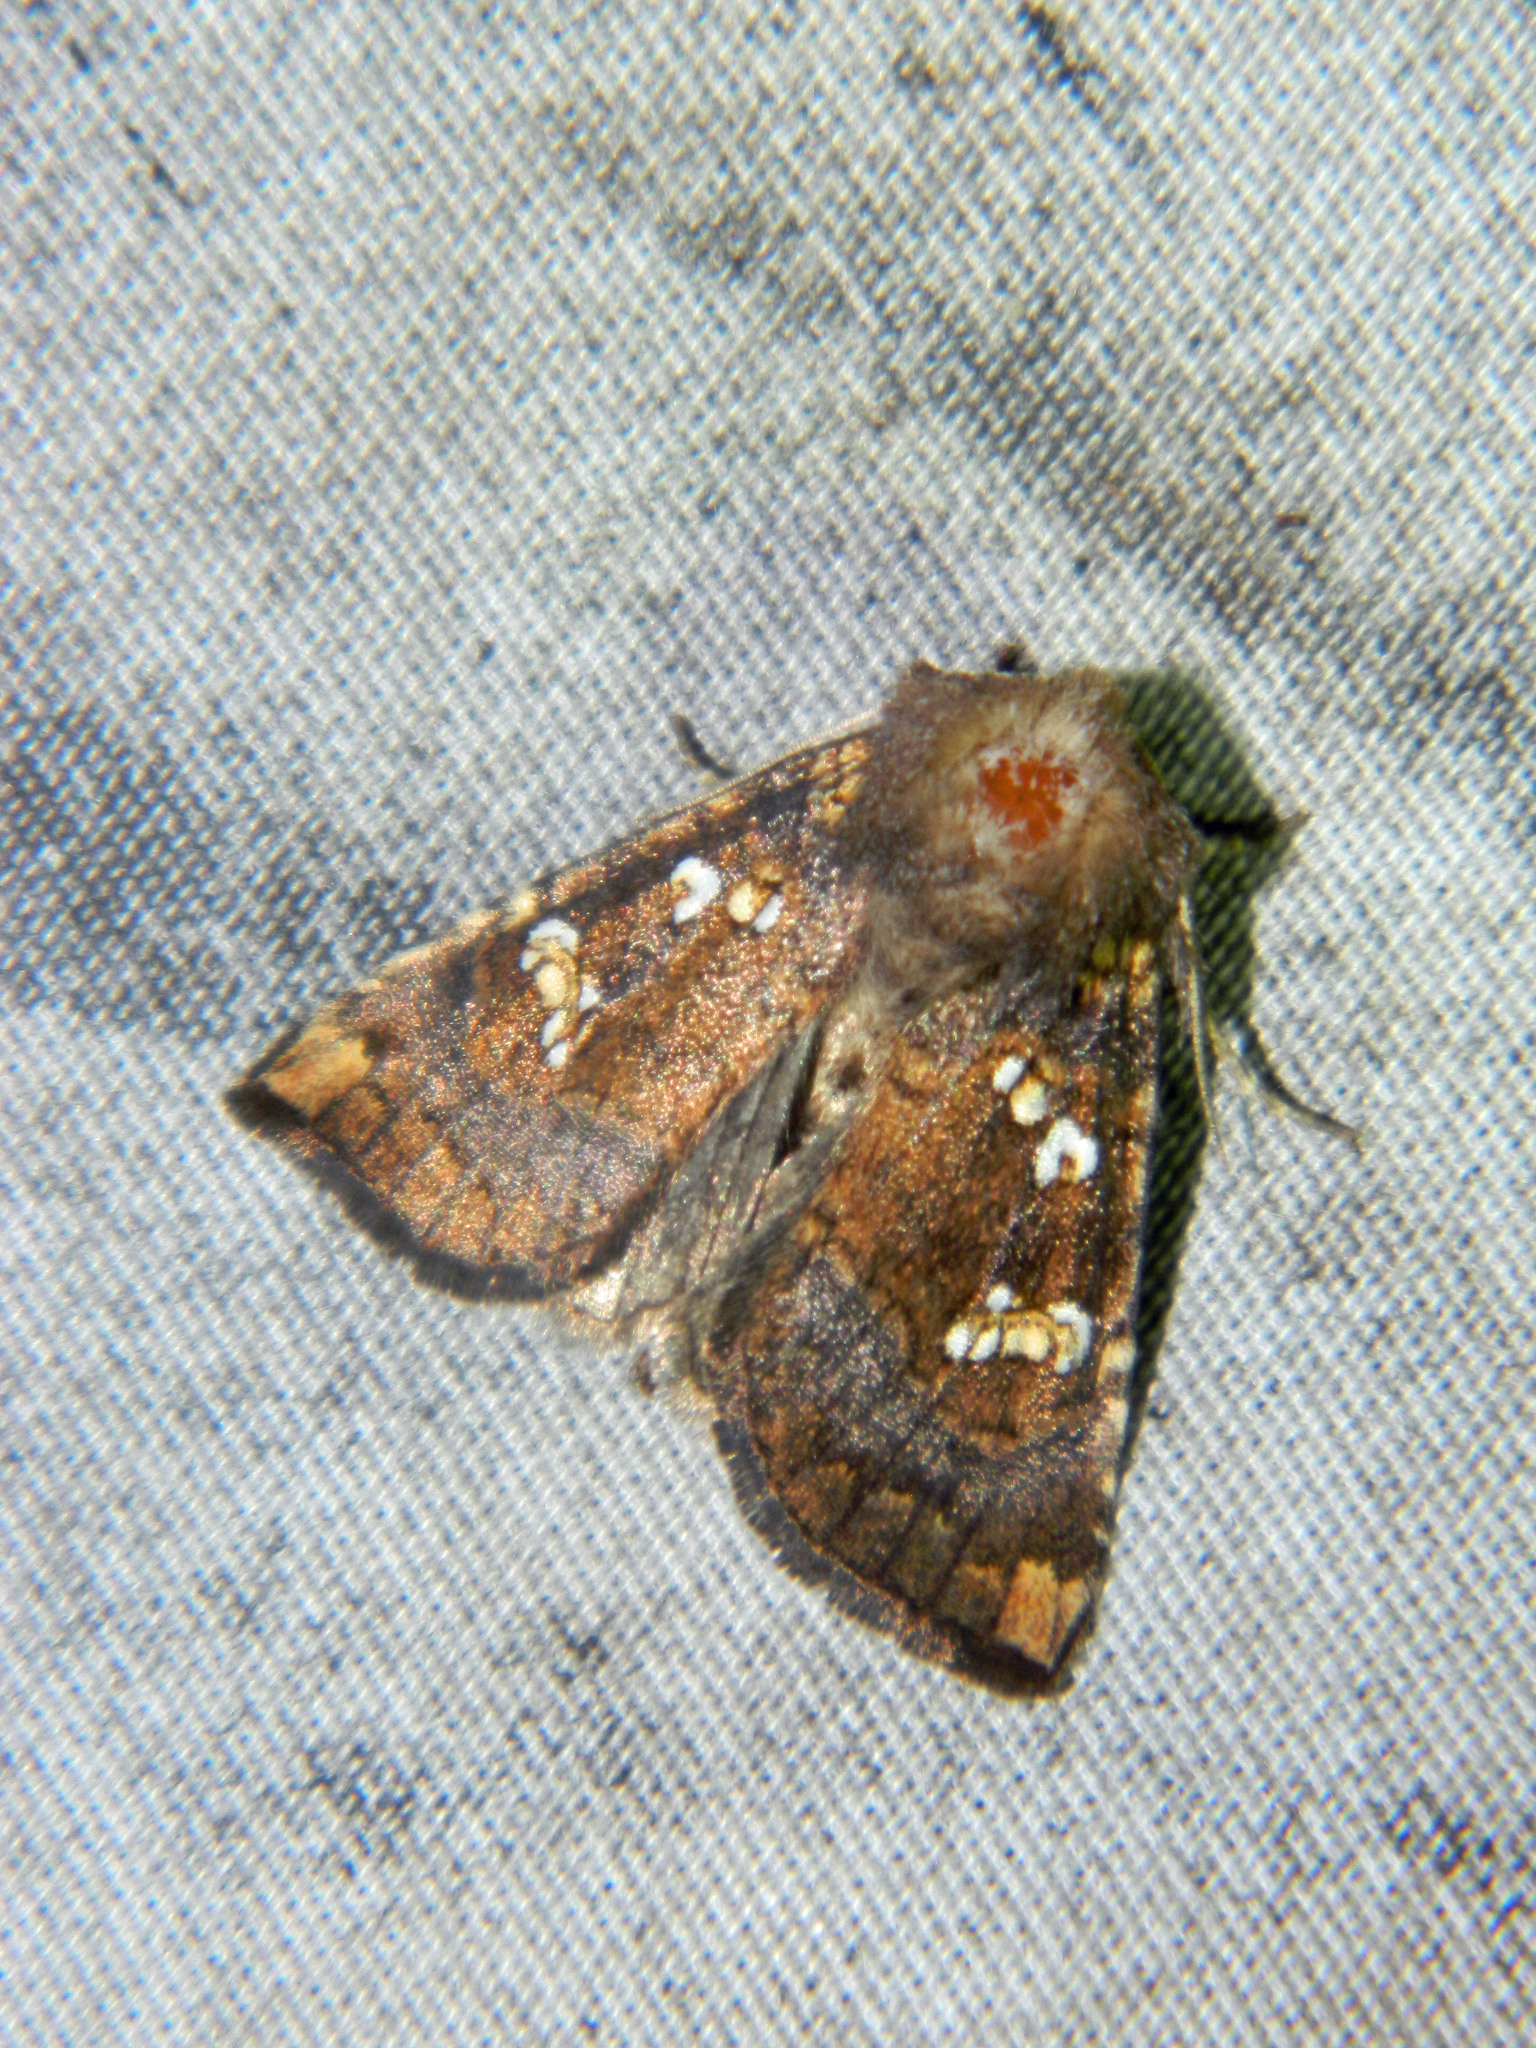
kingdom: Animalia
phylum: Arthropoda
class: Insecta
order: Lepidoptera
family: Noctuidae
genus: Papaipema
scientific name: Papaipema unimoda
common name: Meadow rue borer moth
